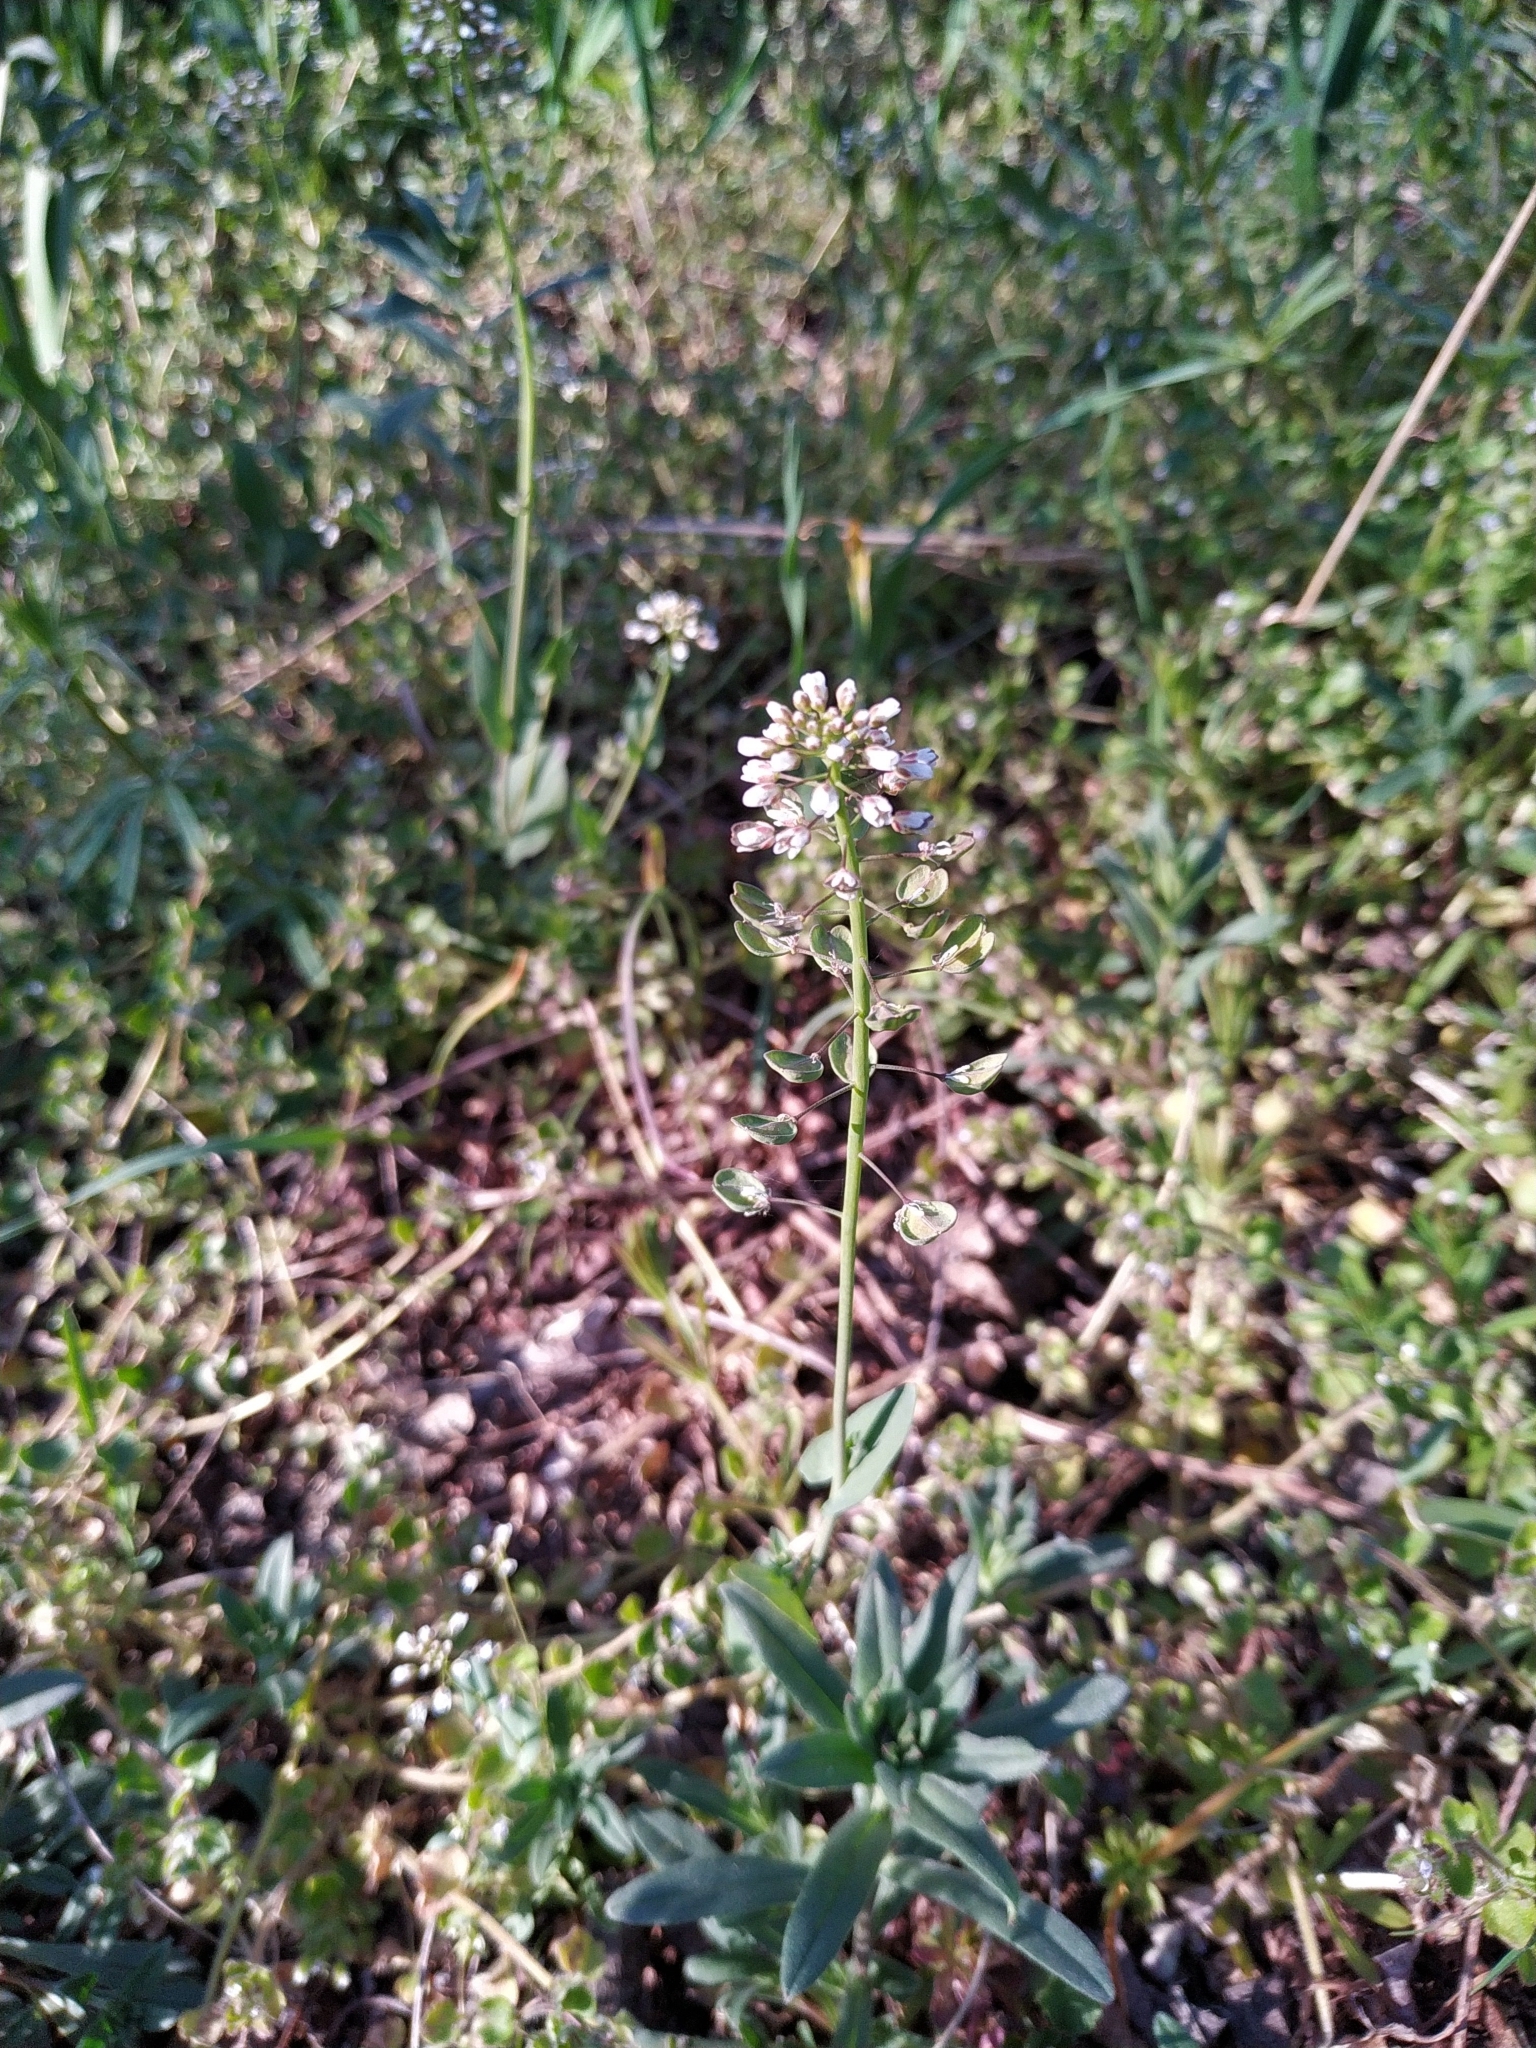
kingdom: Plantae
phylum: Tracheophyta
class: Magnoliopsida
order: Brassicales
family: Brassicaceae
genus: Noccaea
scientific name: Noccaea perfoliata
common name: Perfoliate pennycress
